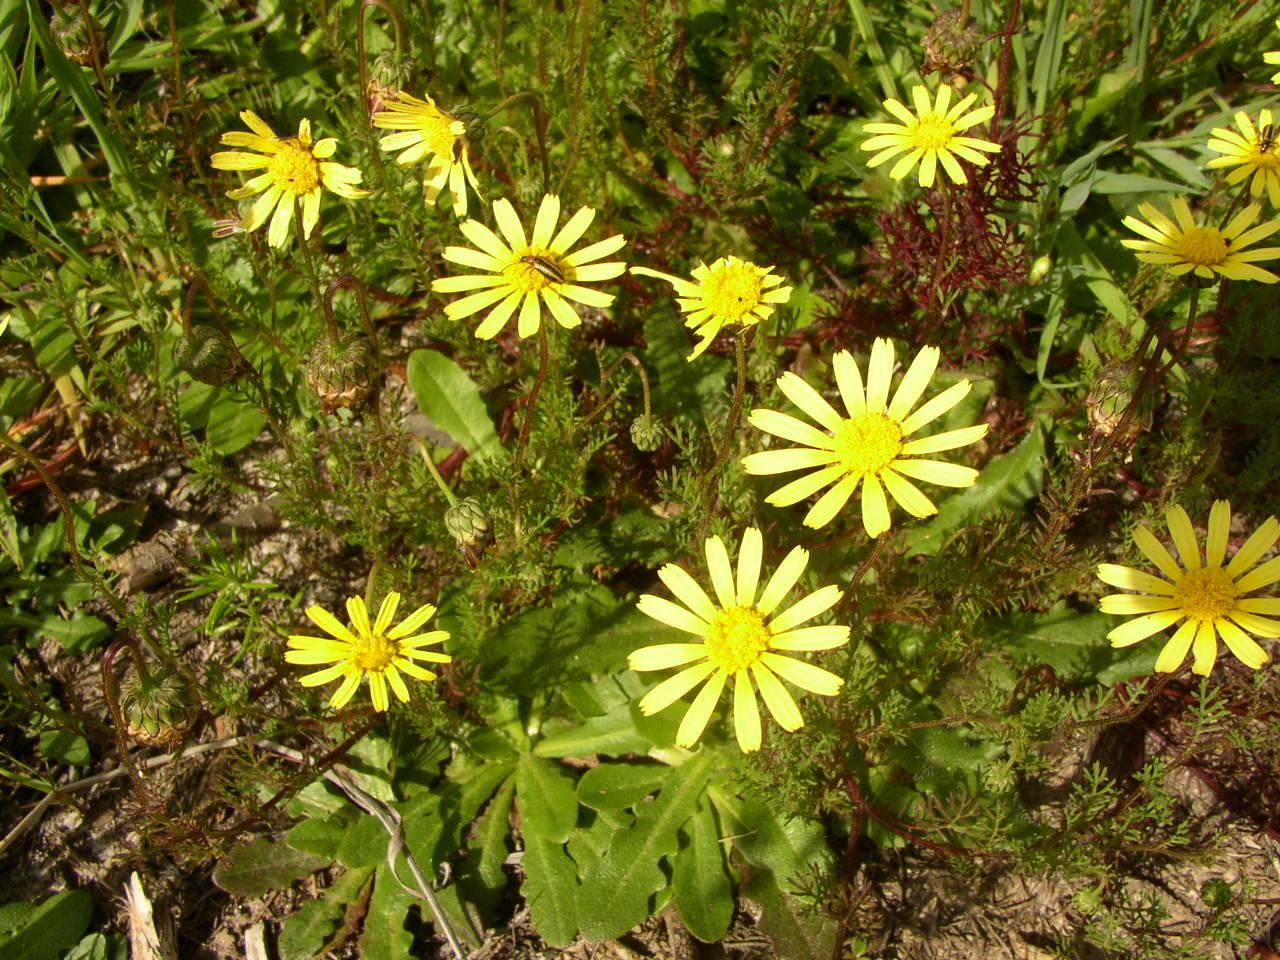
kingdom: Plantae
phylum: Tracheophyta
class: Magnoliopsida
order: Asterales
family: Asteraceae
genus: Ursinia
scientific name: Ursinia anthemoides
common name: Ursinia
